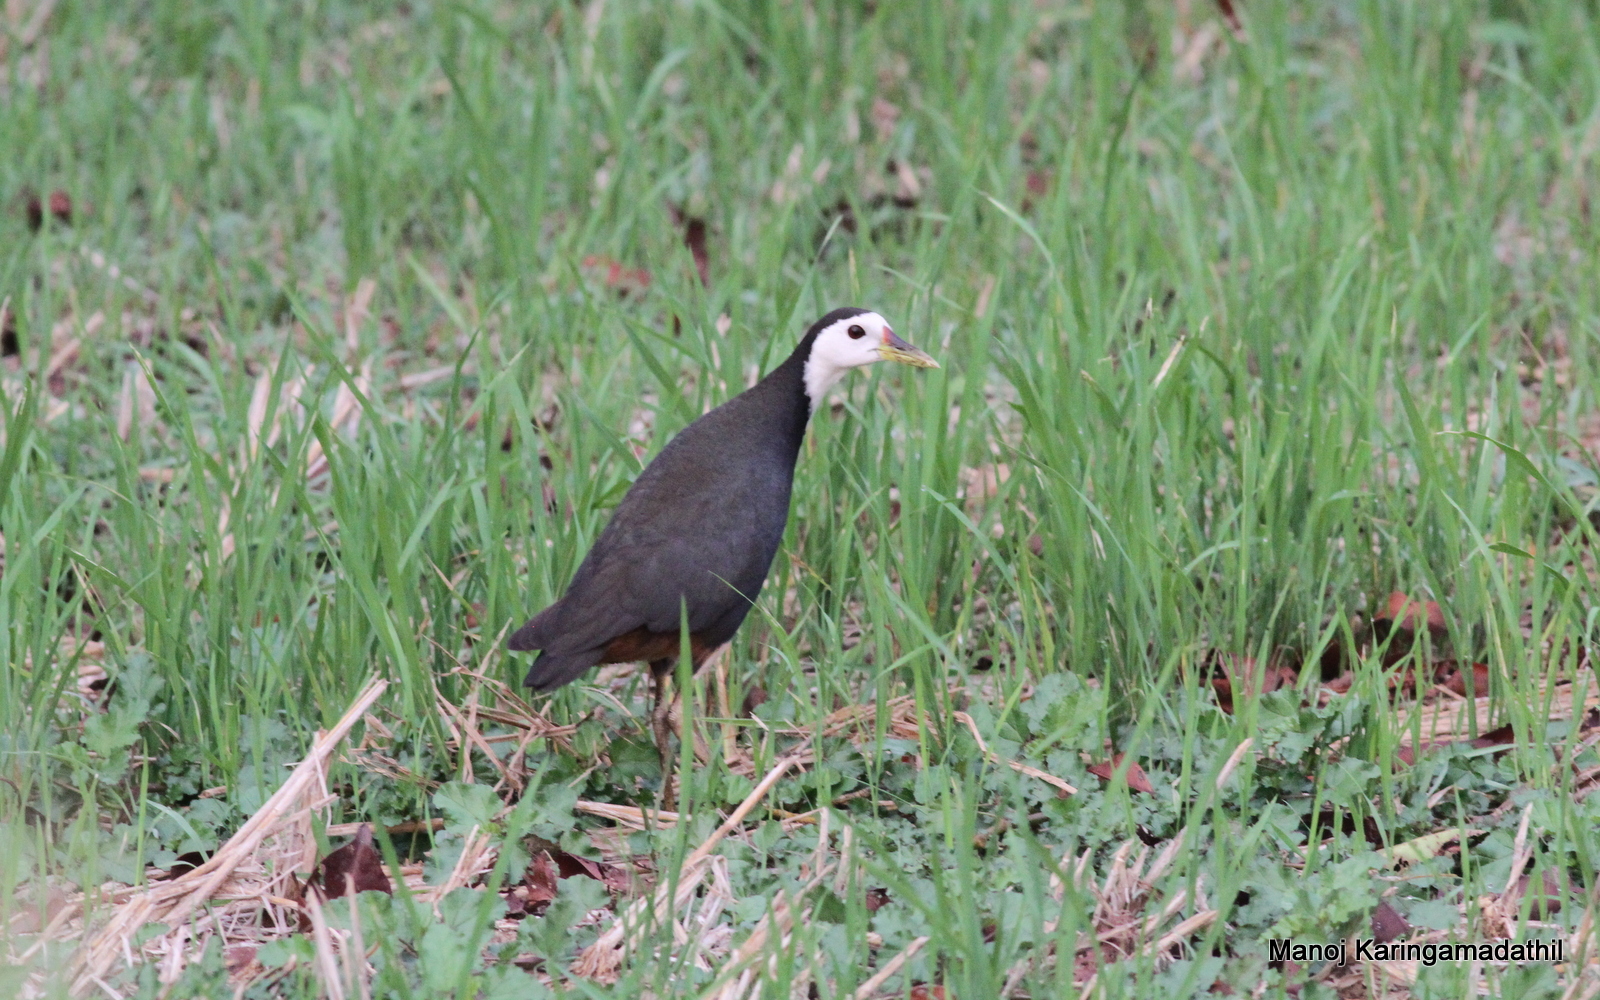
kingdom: Animalia
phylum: Chordata
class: Aves
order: Gruiformes
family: Rallidae
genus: Amaurornis
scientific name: Amaurornis phoenicurus
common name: White-breasted waterhen
